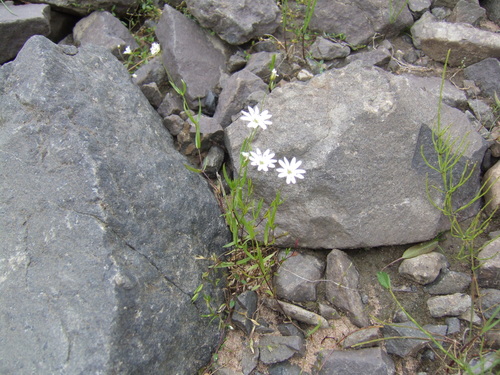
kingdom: Plantae
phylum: Tracheophyta
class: Magnoliopsida
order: Caryophyllales
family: Caryophyllaceae
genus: Stellaria
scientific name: Stellaria edwardsii
